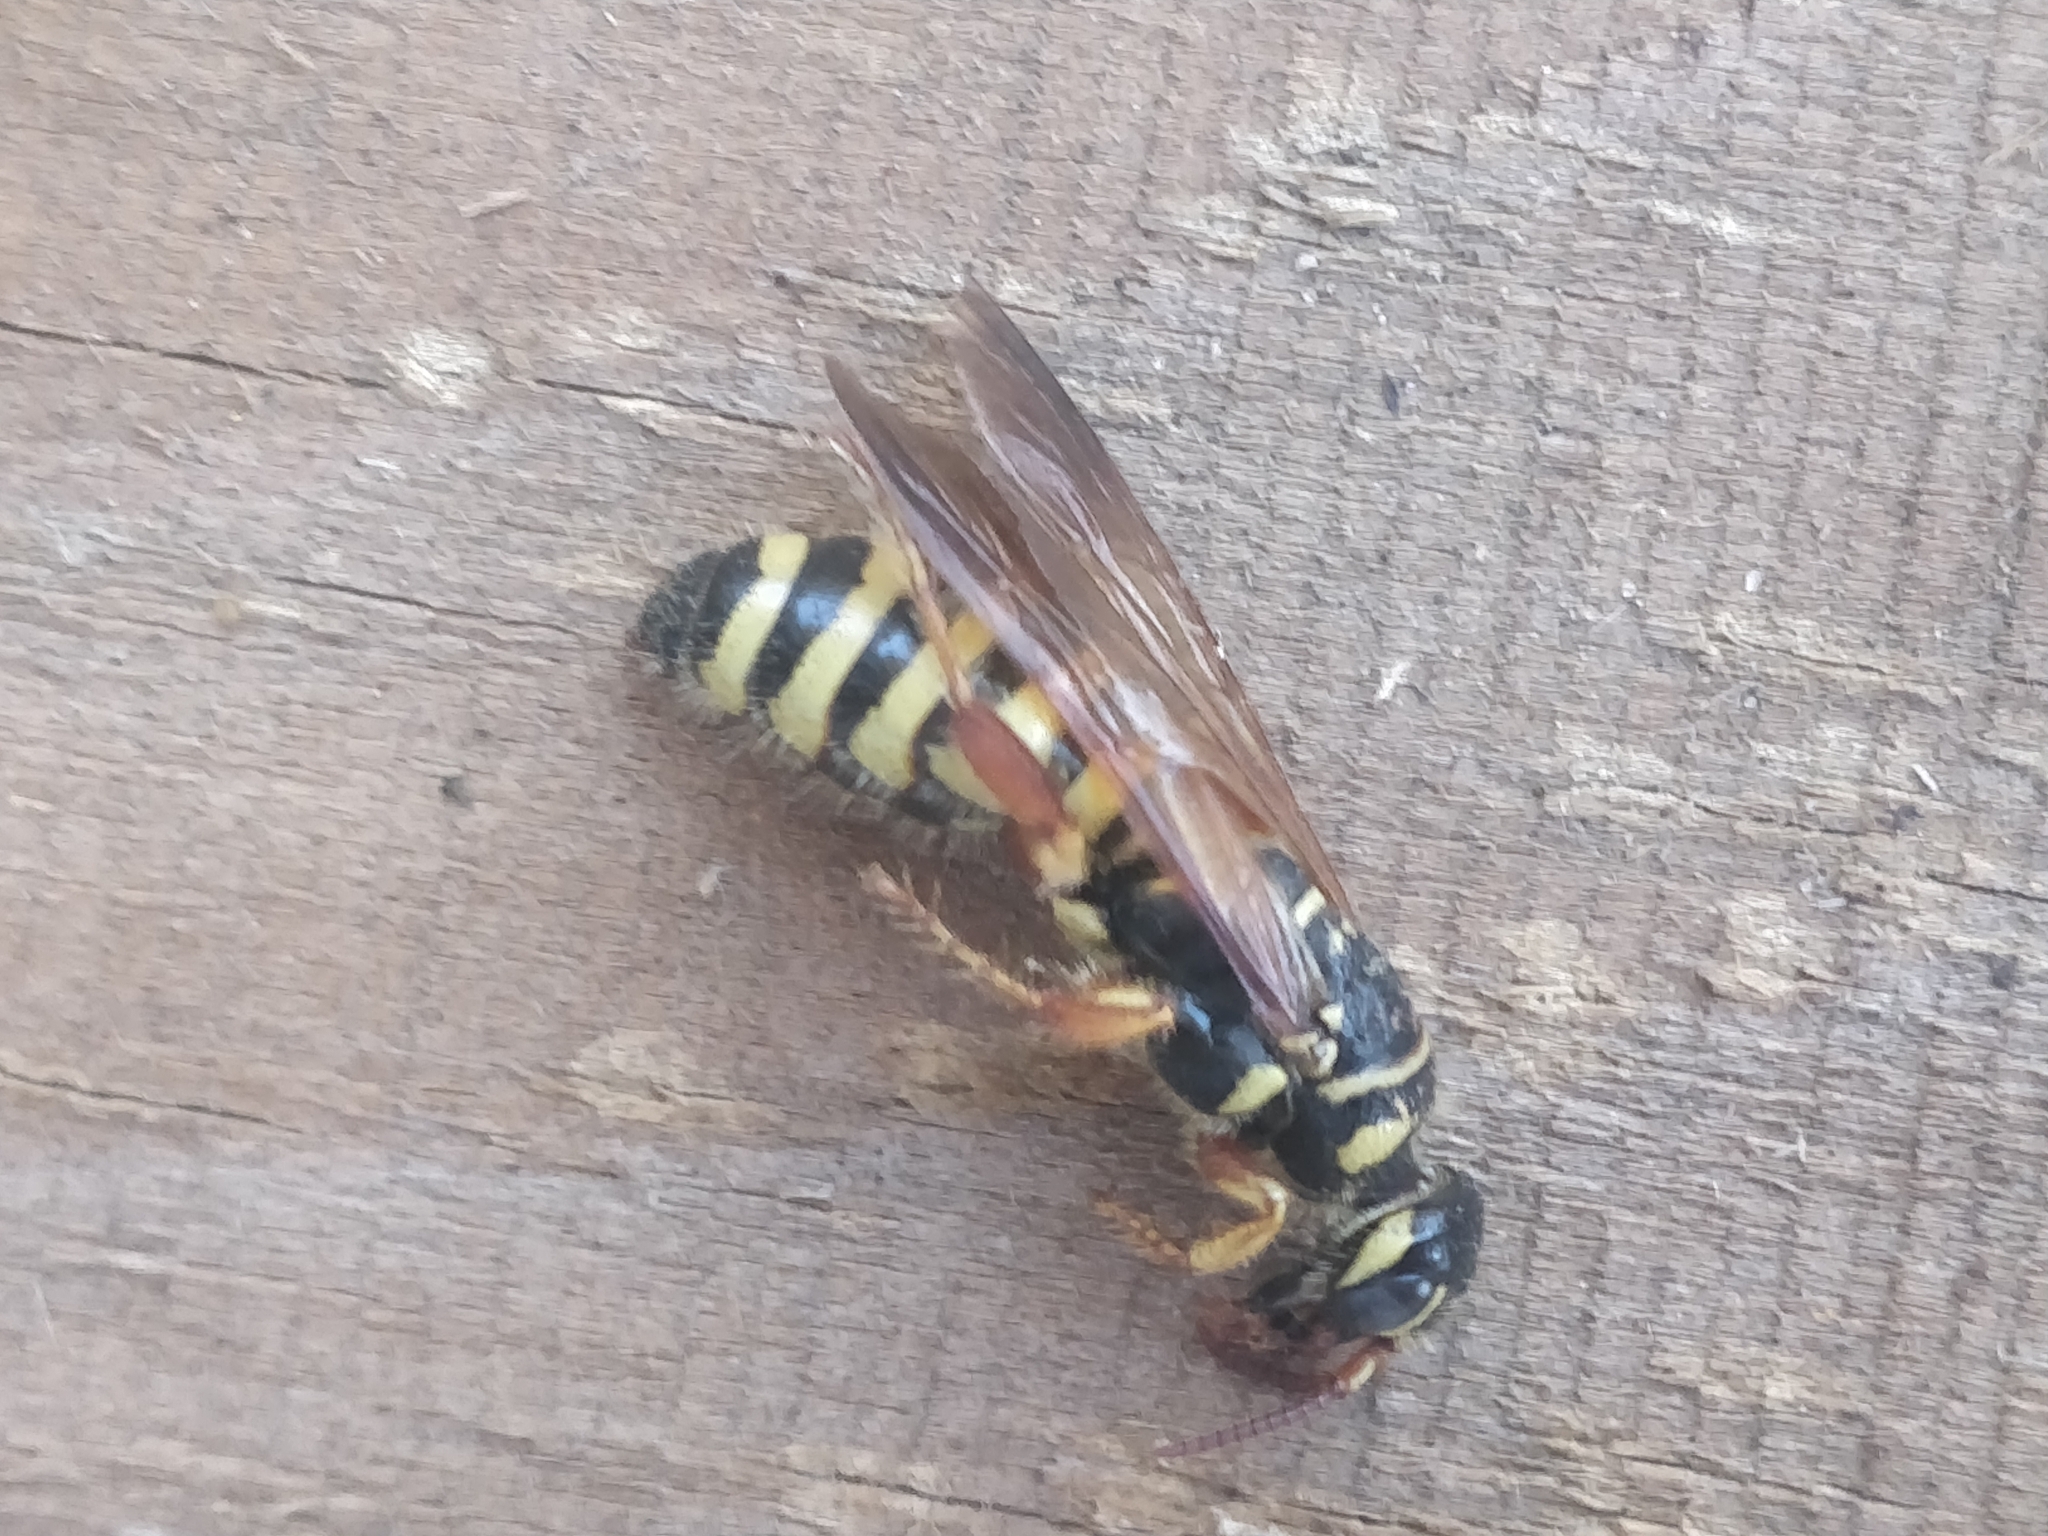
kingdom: Animalia
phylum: Arthropoda
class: Insecta
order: Hymenoptera
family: Tiphiidae
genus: Myzinum
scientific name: Myzinum quinquecinctum
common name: Five-banded thynnid wasp
